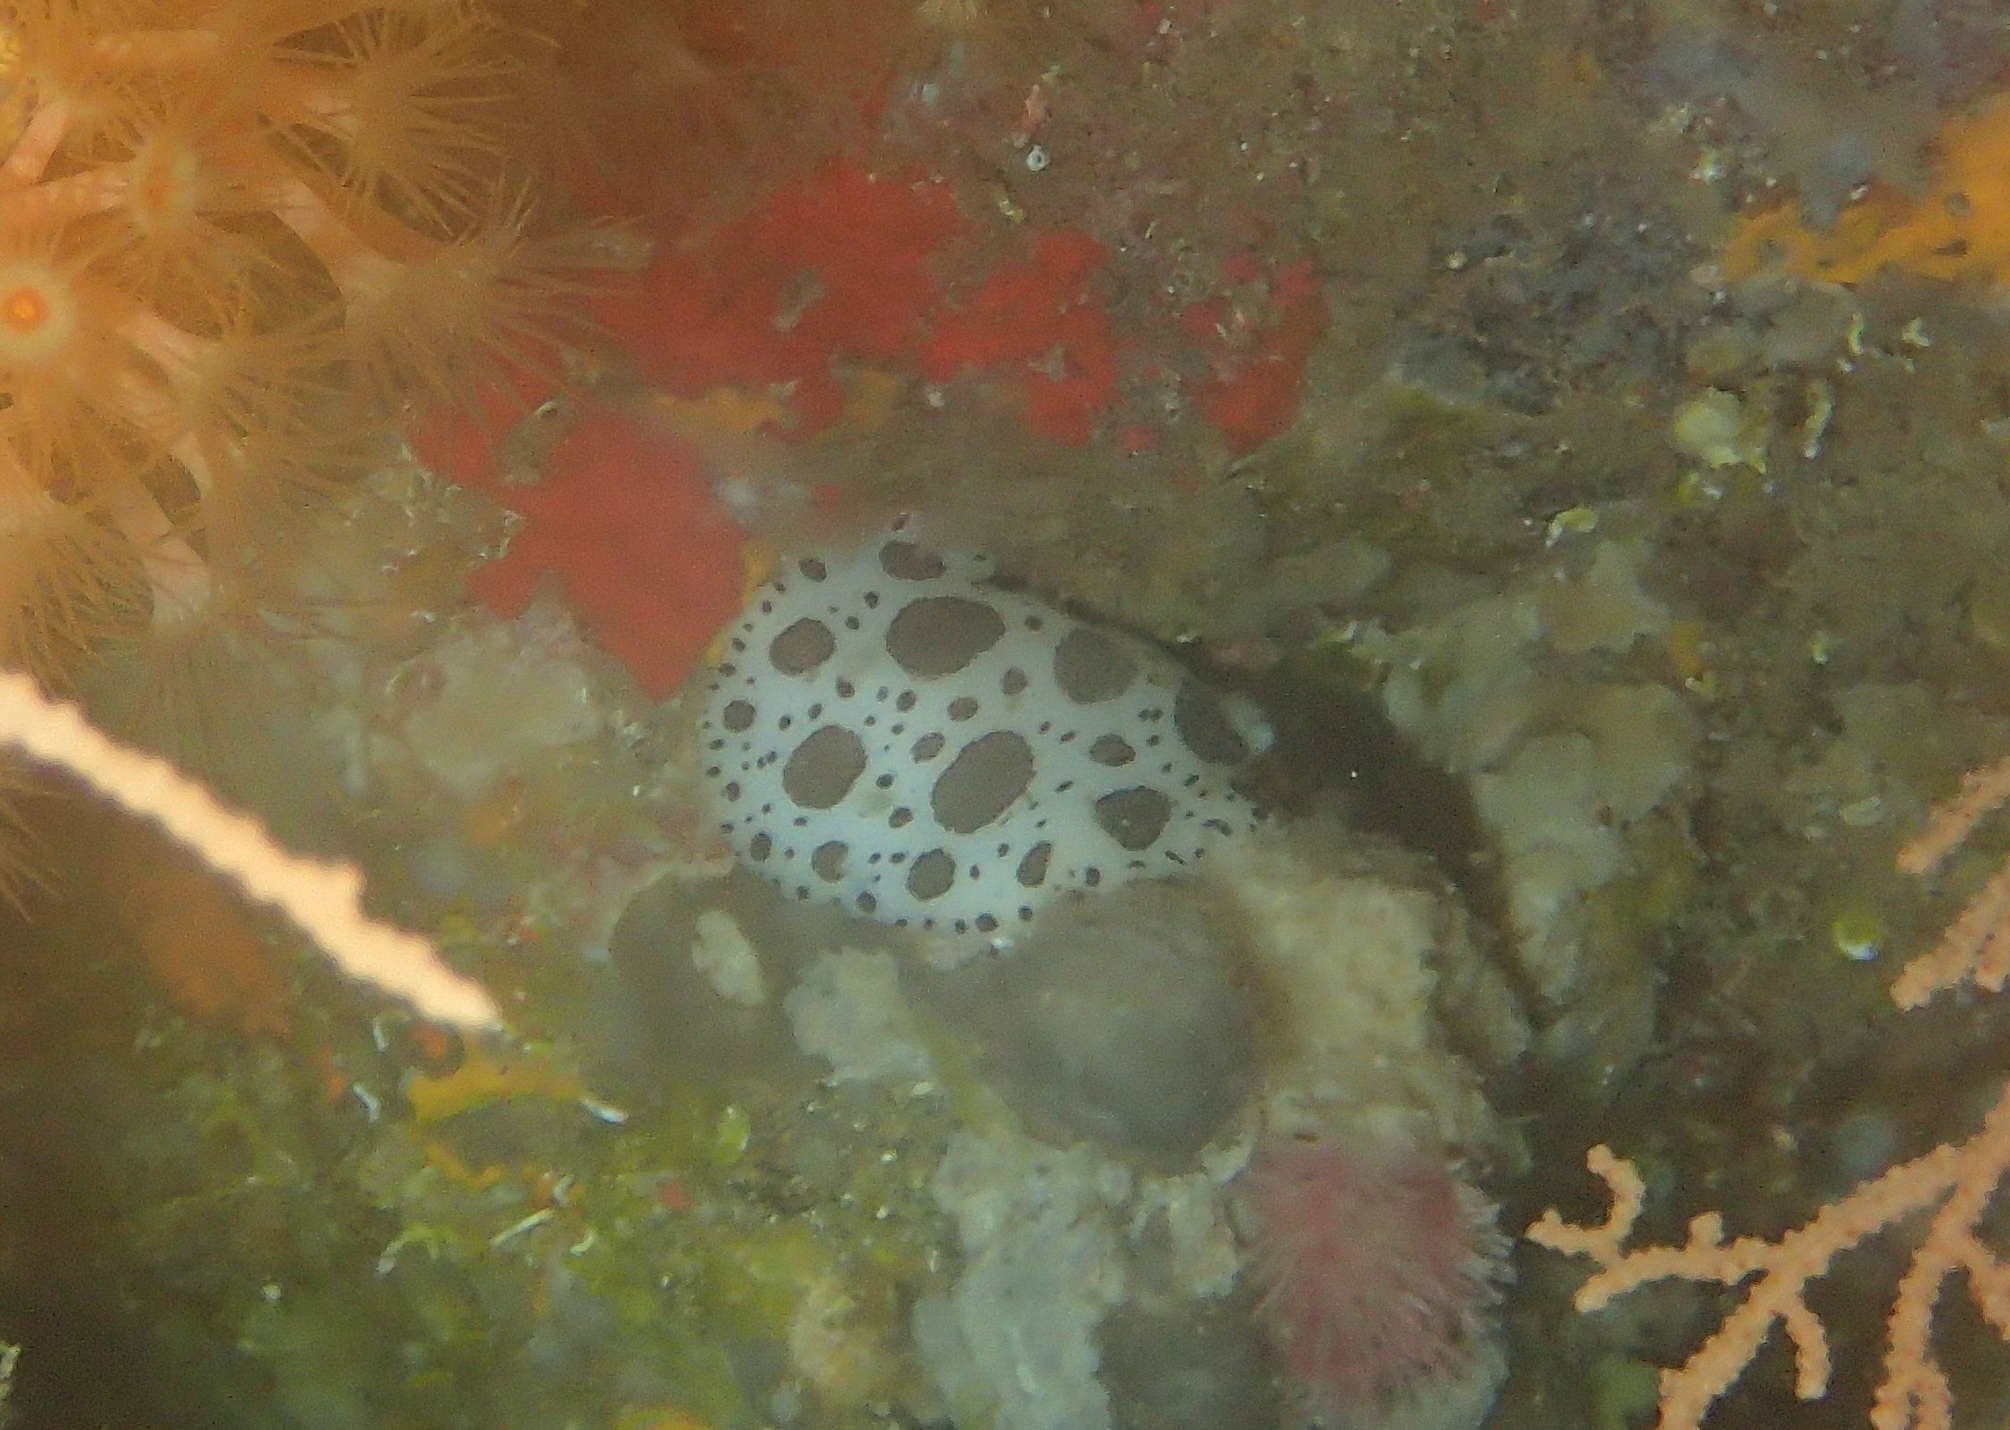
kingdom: Animalia
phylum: Mollusca
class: Gastropoda
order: Nudibranchia
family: Discodorididae
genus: Peltodoris
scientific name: Peltodoris atromaculata
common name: Swiss cow nudibranch
